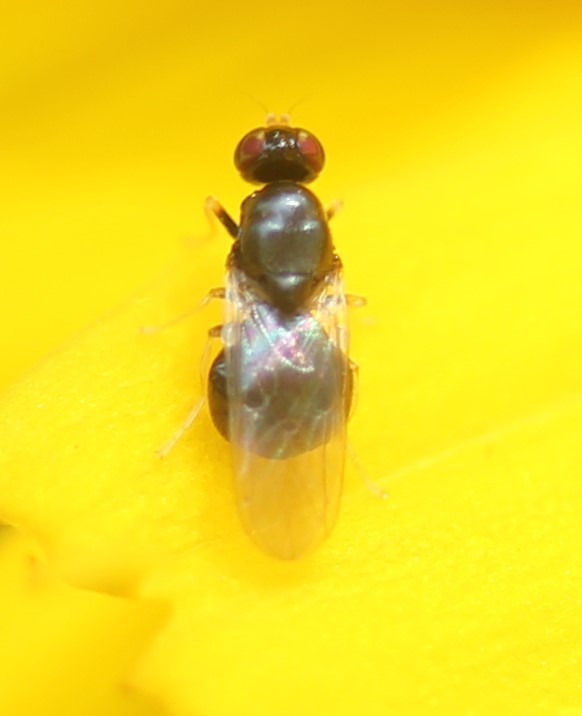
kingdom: Animalia
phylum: Arthropoda
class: Insecta
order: Diptera
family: Stratiomyidae
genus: Pachygaster
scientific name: Pachygaster pulchra
